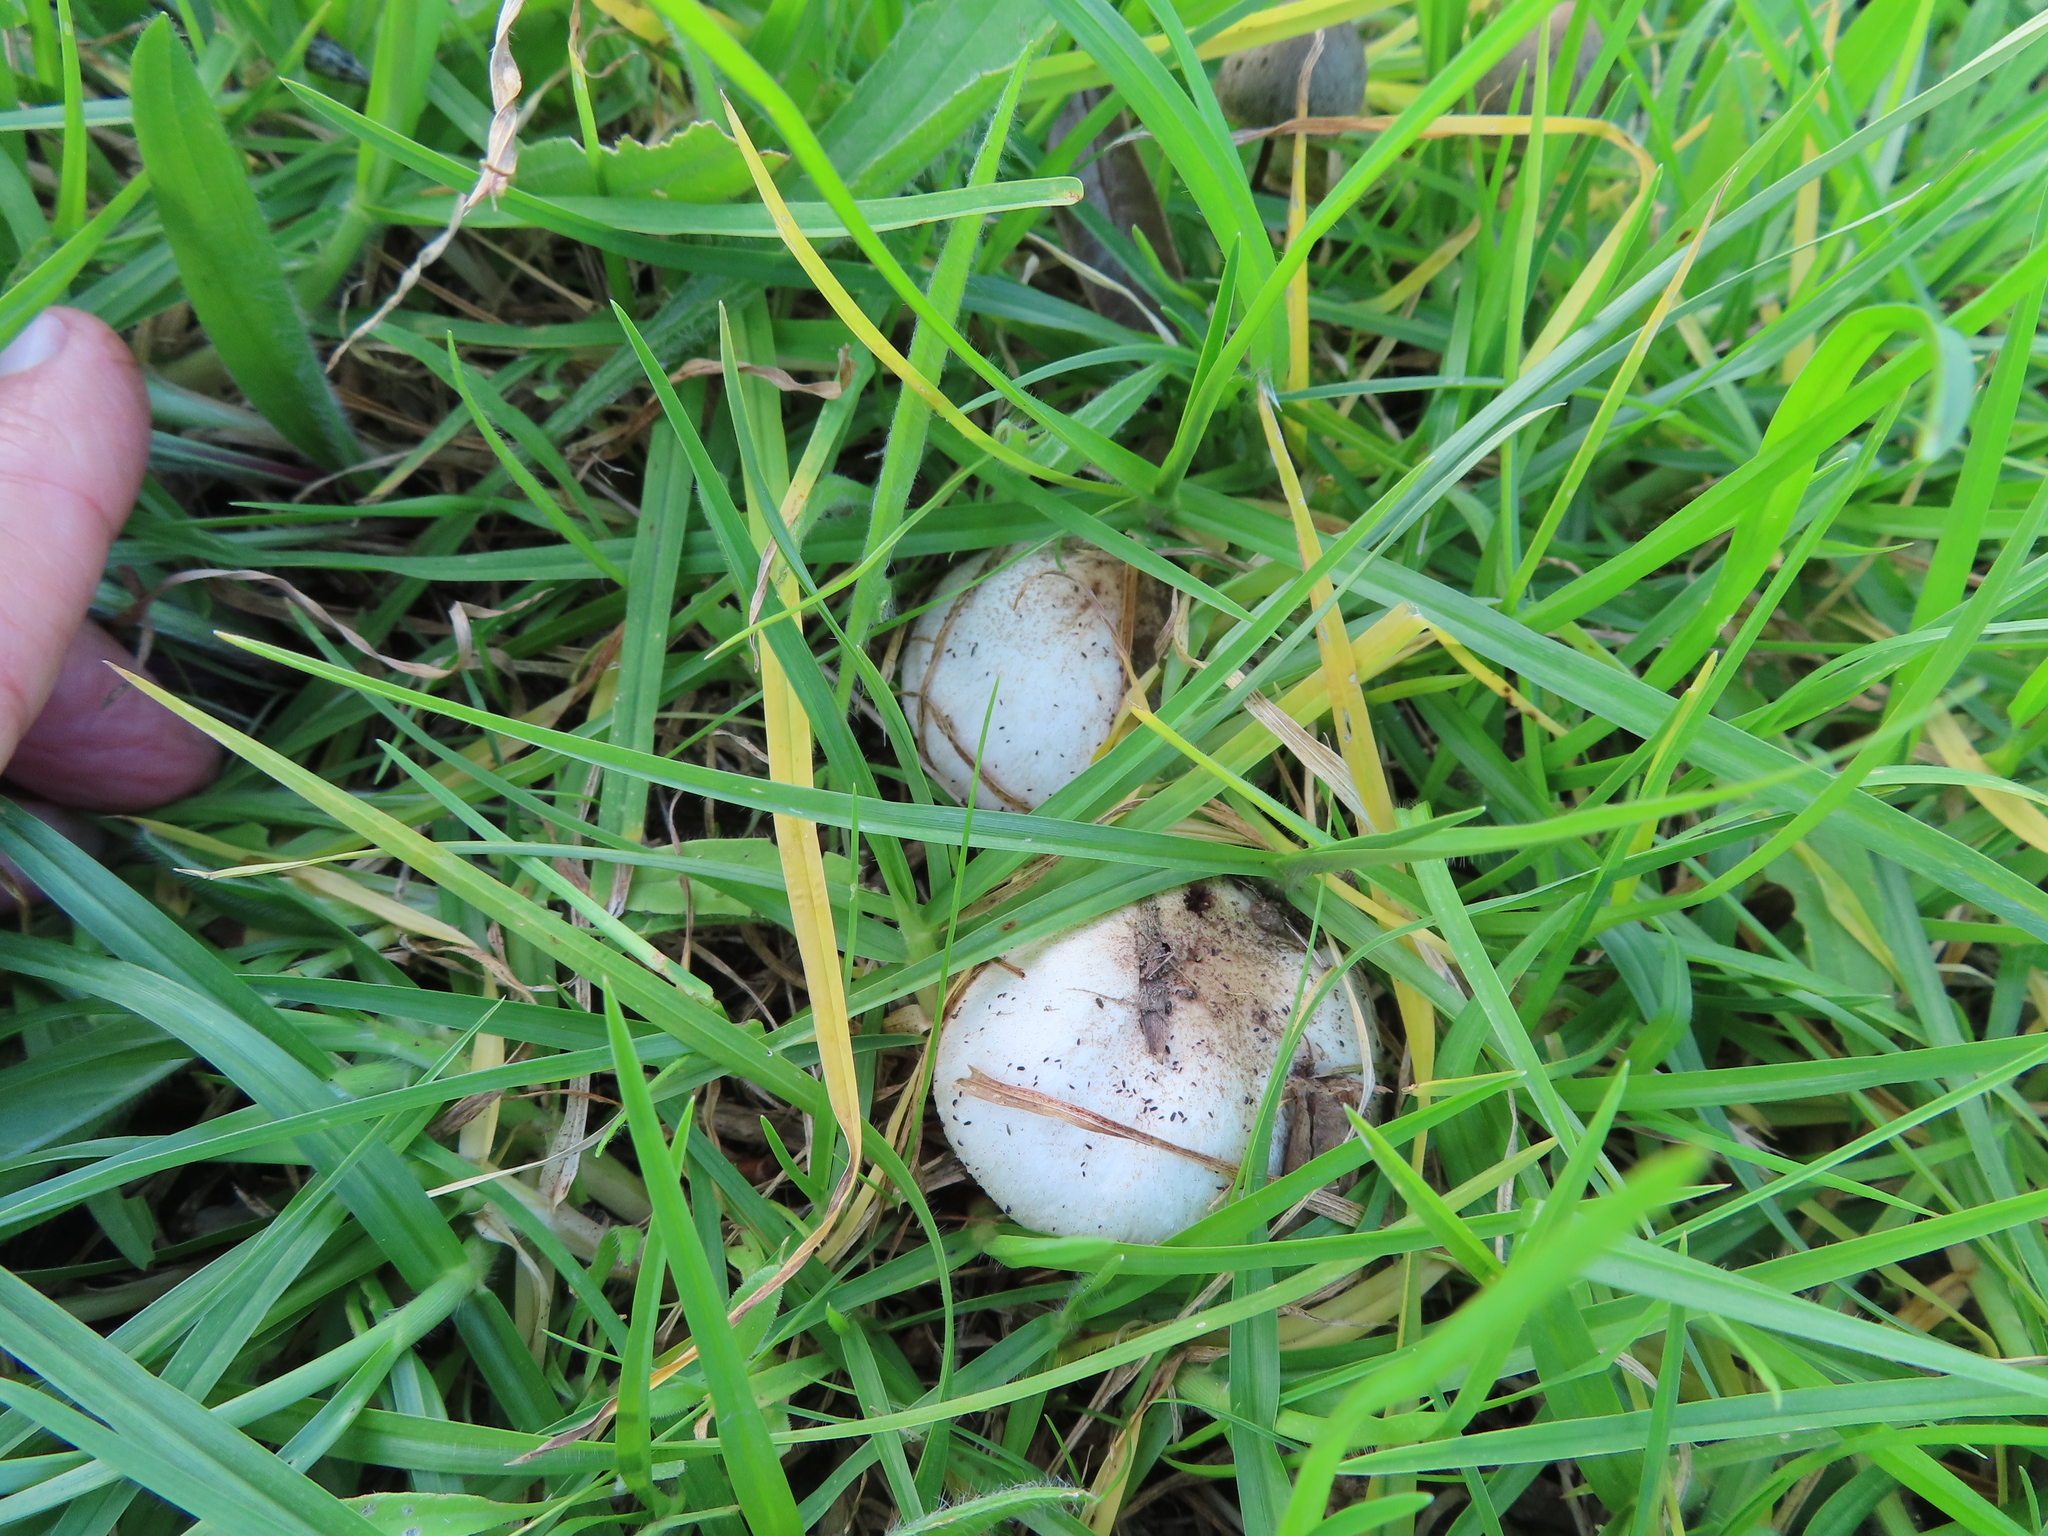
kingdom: Fungi
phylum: Basidiomycota
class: Agaricomycetes
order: Agaricales
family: Agaricaceae
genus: Agaricus
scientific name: Agaricus campestris
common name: Field mushroom
